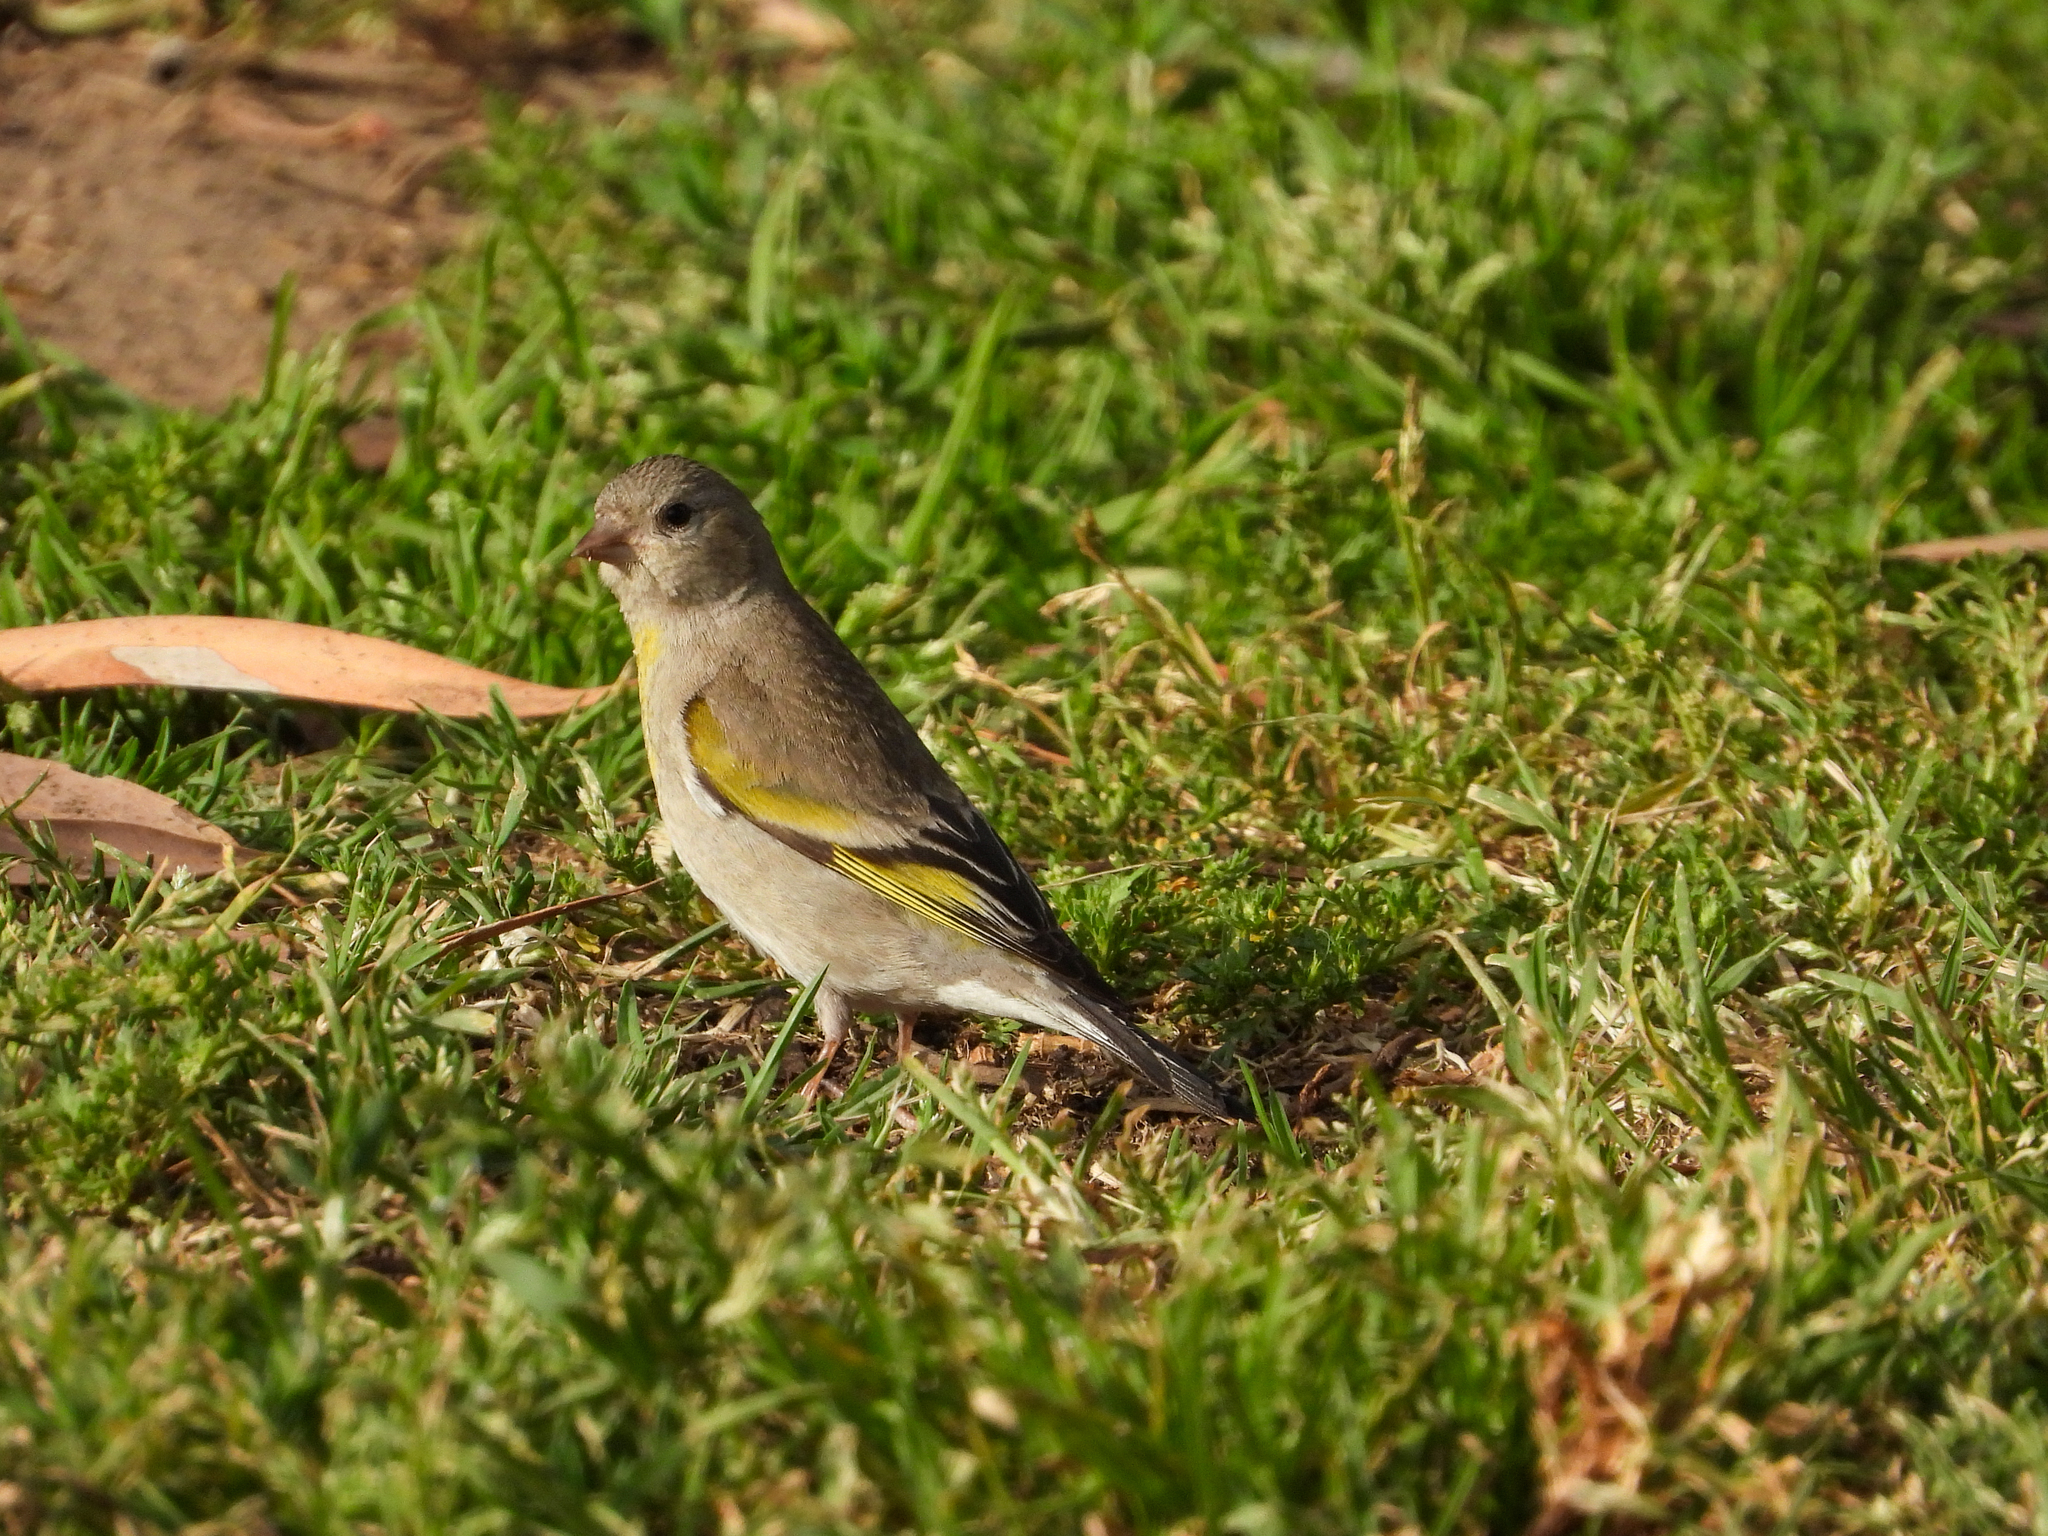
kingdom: Animalia
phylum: Chordata
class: Aves
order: Passeriformes
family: Fringillidae
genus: Spinus
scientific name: Spinus lawrencei
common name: Lawrence's goldfinch
